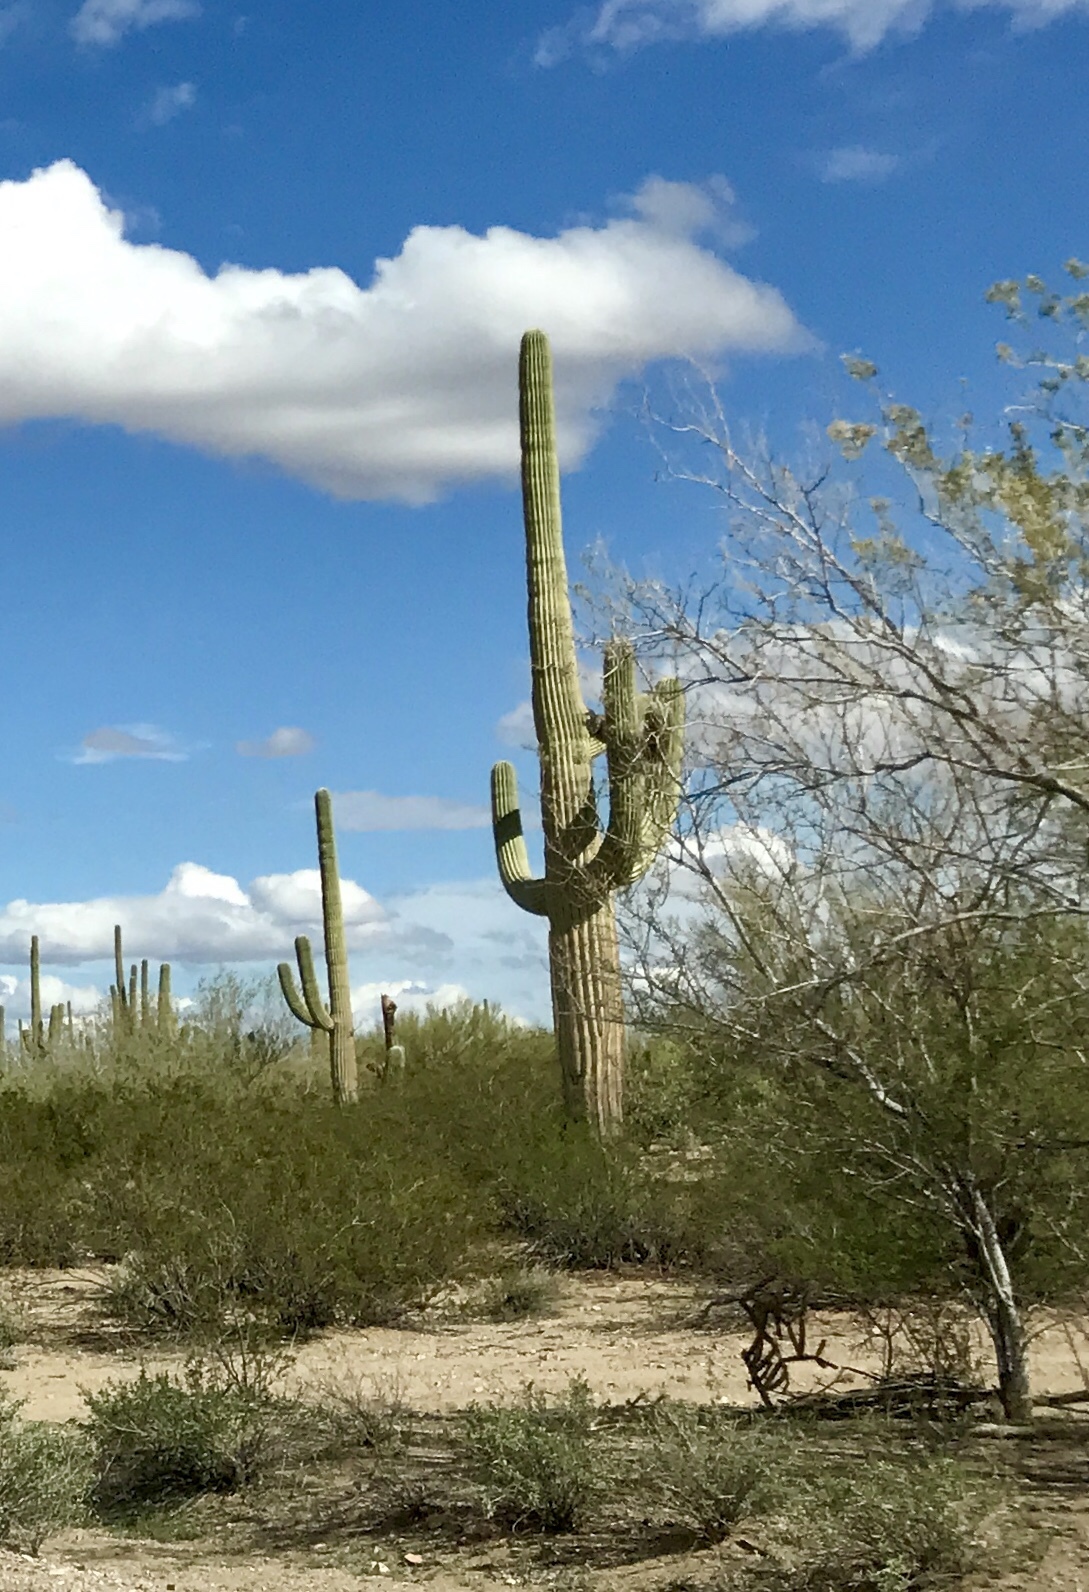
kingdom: Plantae
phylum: Tracheophyta
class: Magnoliopsida
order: Caryophyllales
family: Cactaceae
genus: Carnegiea
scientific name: Carnegiea gigantea
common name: Saguaro
